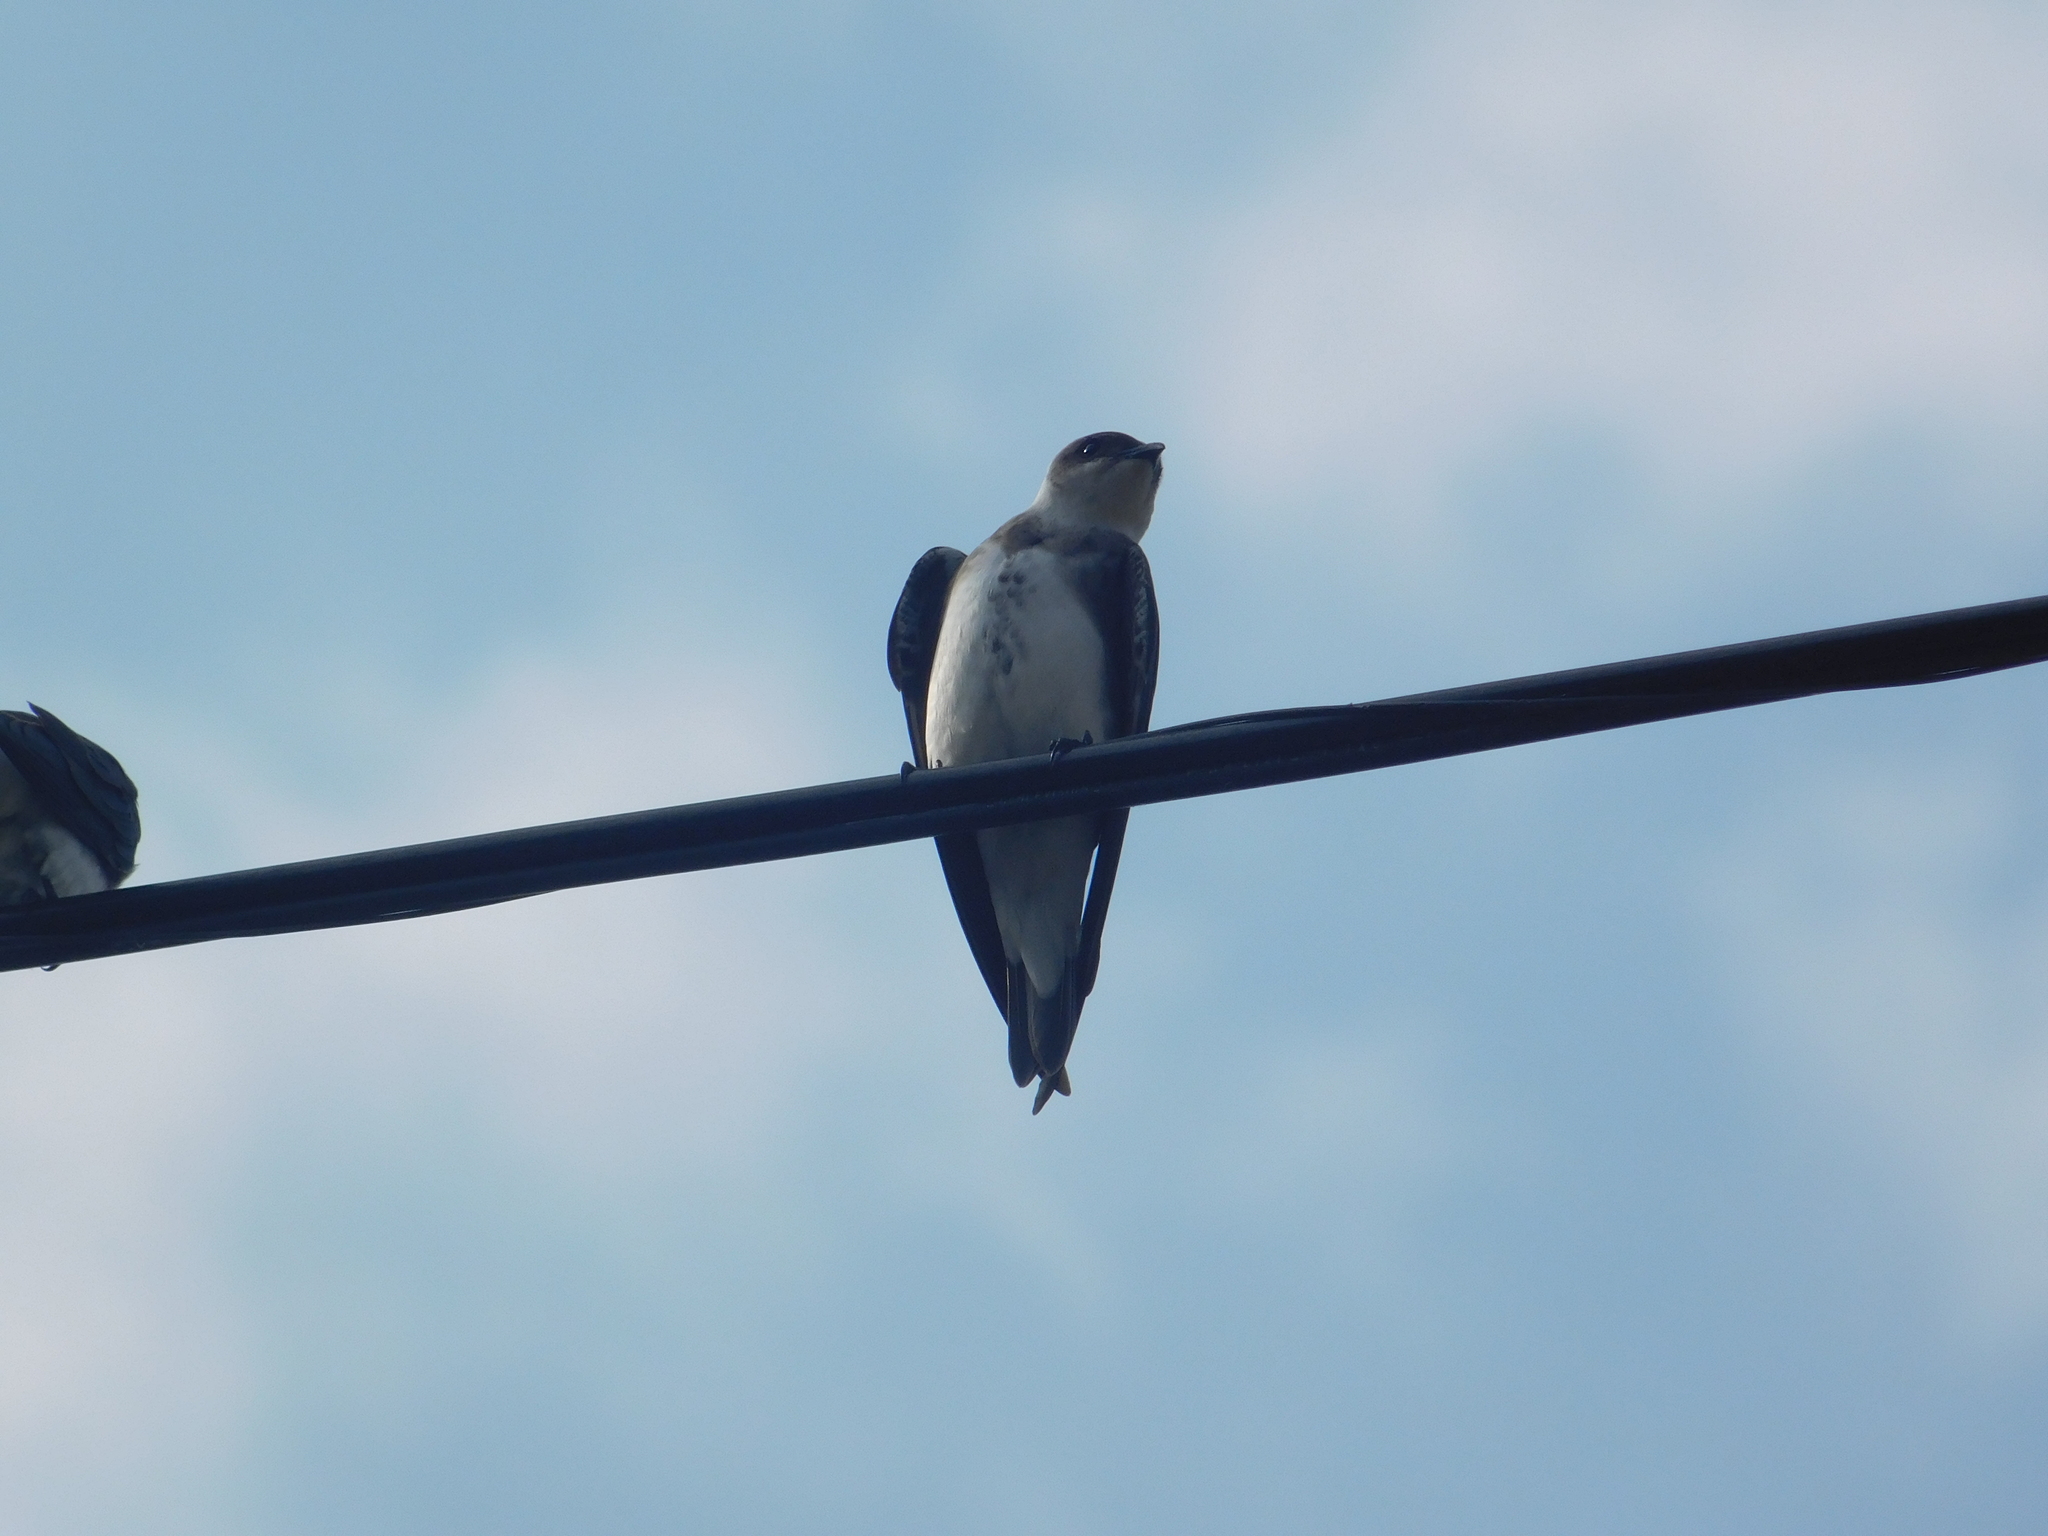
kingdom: Animalia
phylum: Chordata
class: Aves
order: Passeriformes
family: Hirundinidae
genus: Progne
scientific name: Progne tapera
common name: Brown-chested martin
